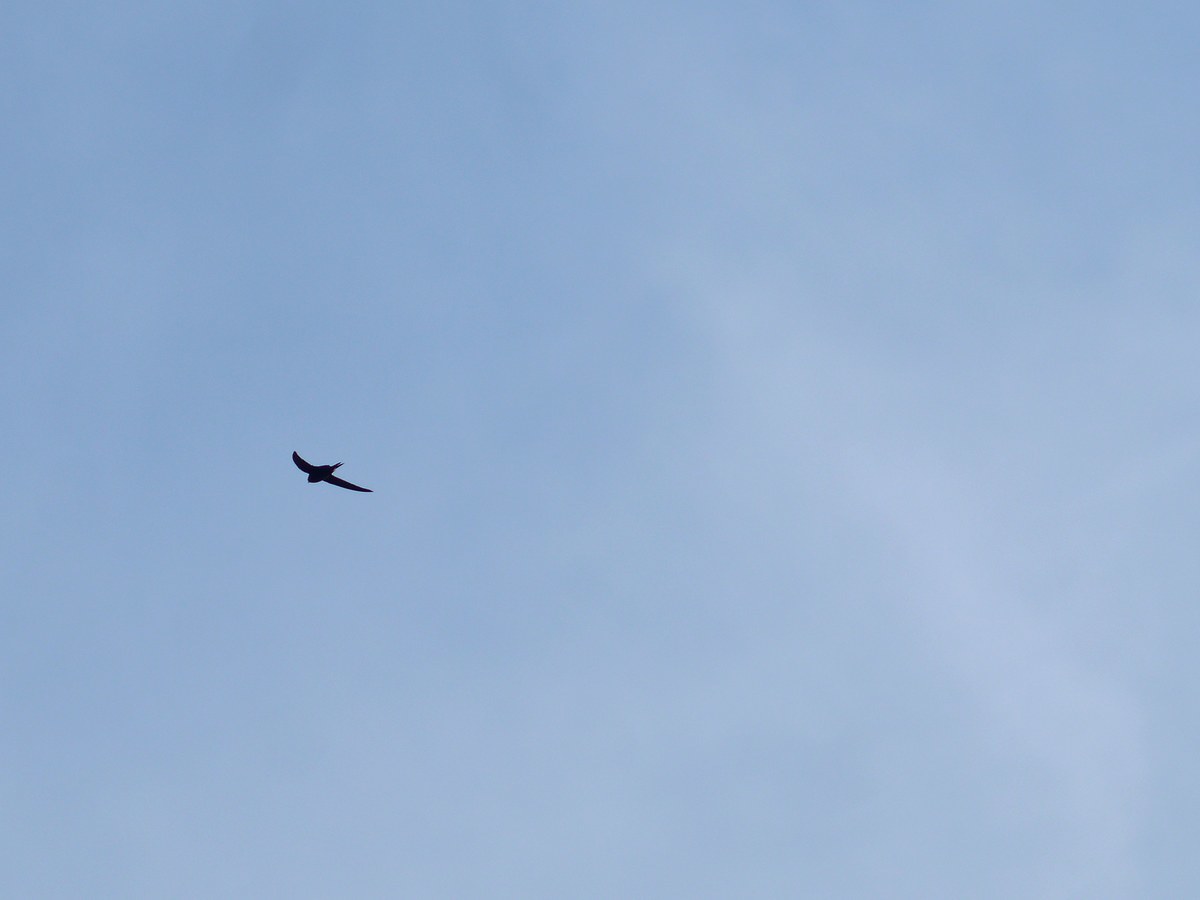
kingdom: Animalia
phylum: Chordata
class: Aves
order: Apodiformes
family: Apodidae
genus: Apus
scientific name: Apus apus
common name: Common swift
